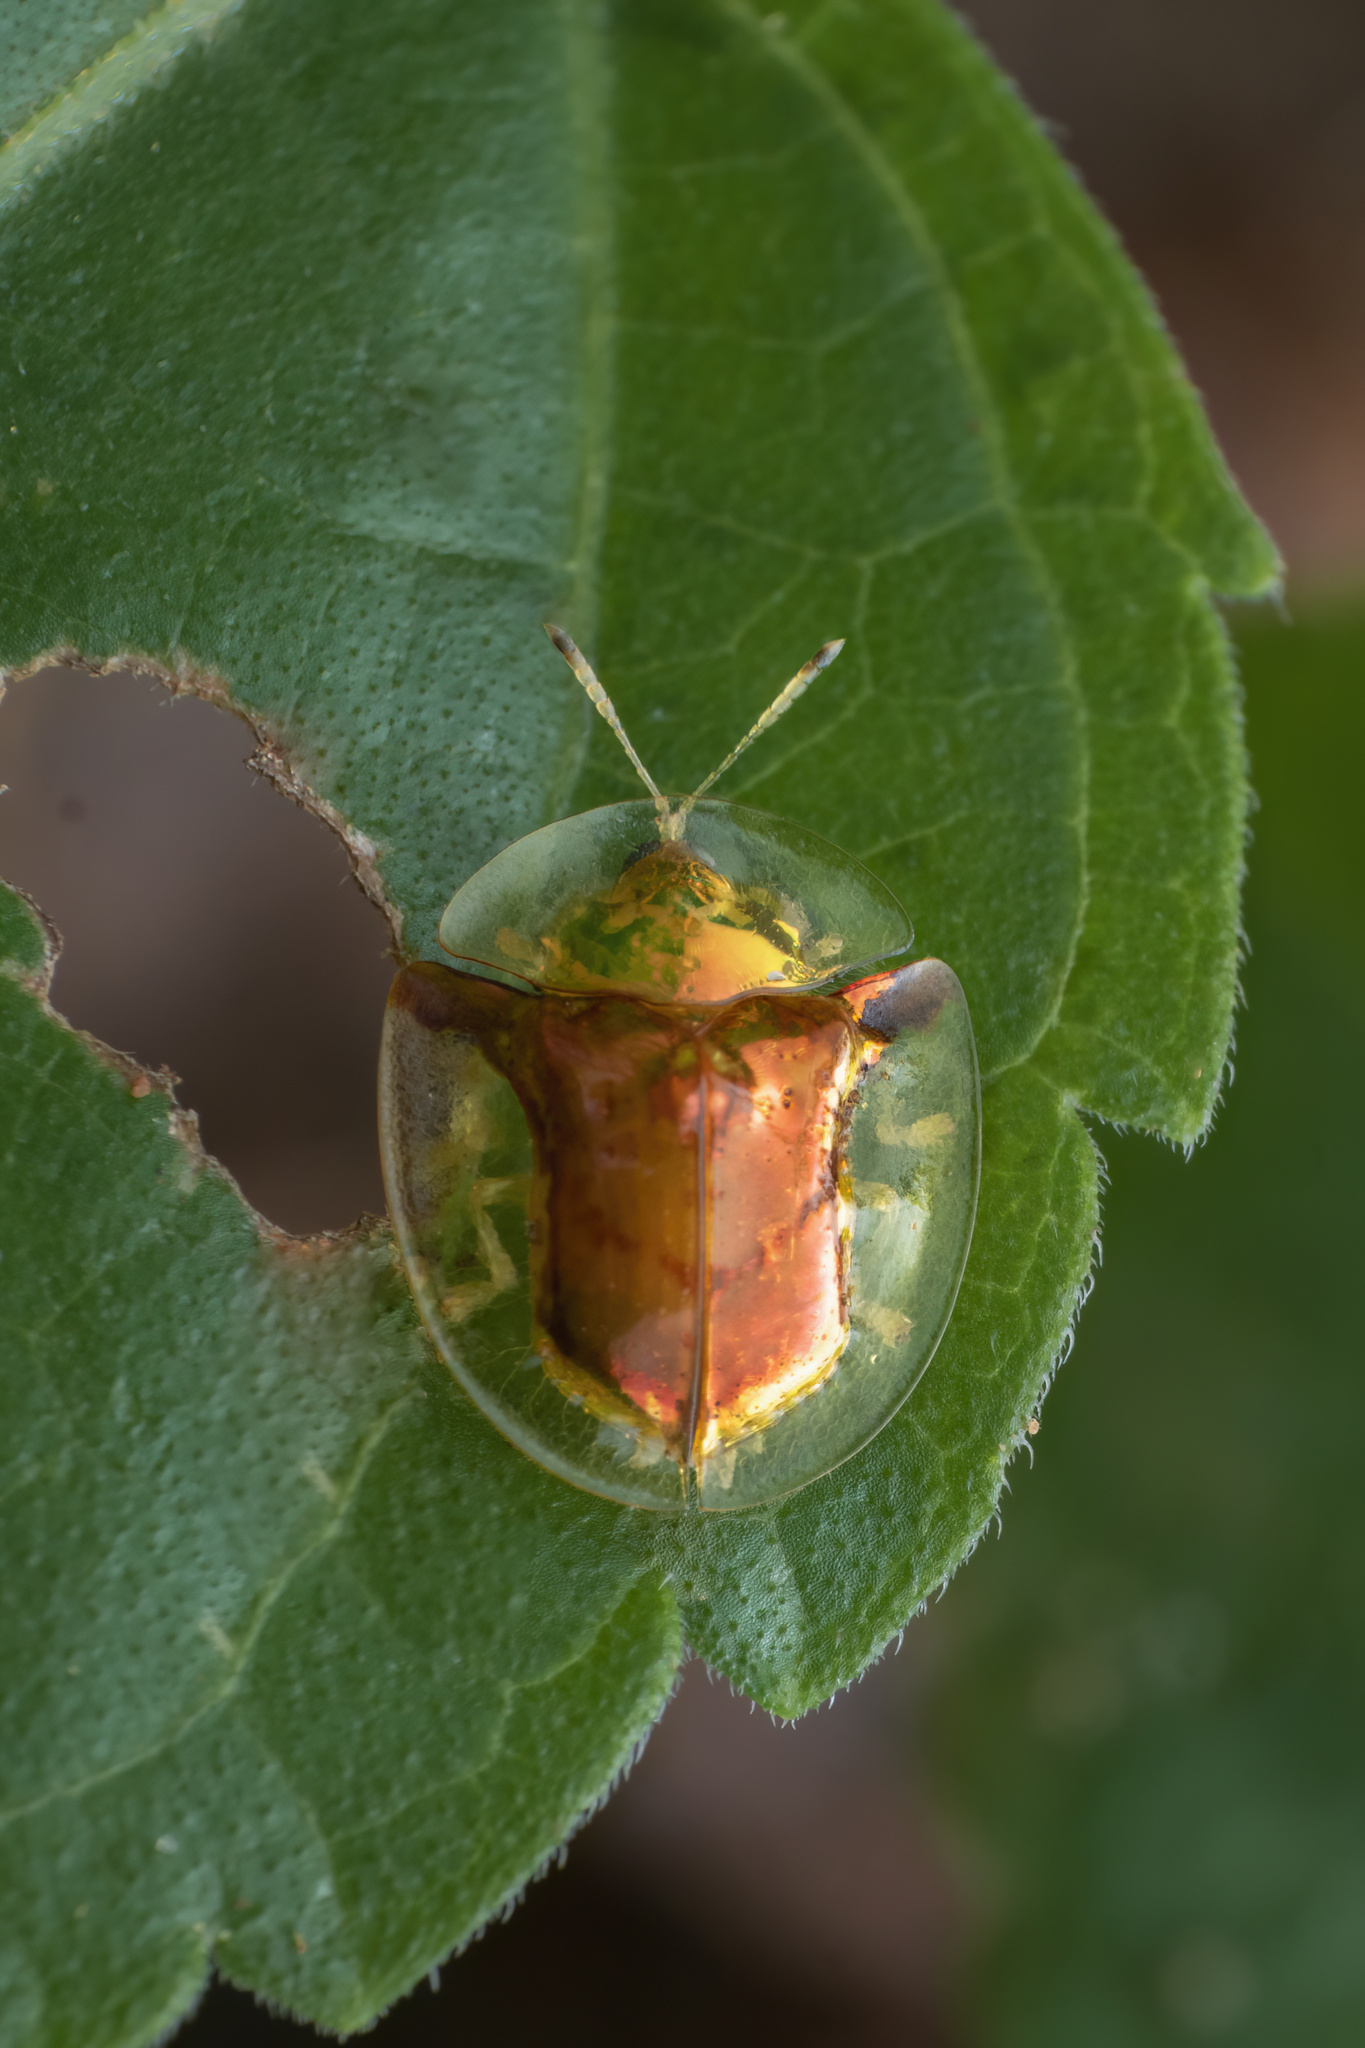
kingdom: Animalia
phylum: Arthropoda
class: Insecta
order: Coleoptera
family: Chrysomelidae
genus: Aspidimorpha
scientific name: Aspidimorpha furcata
